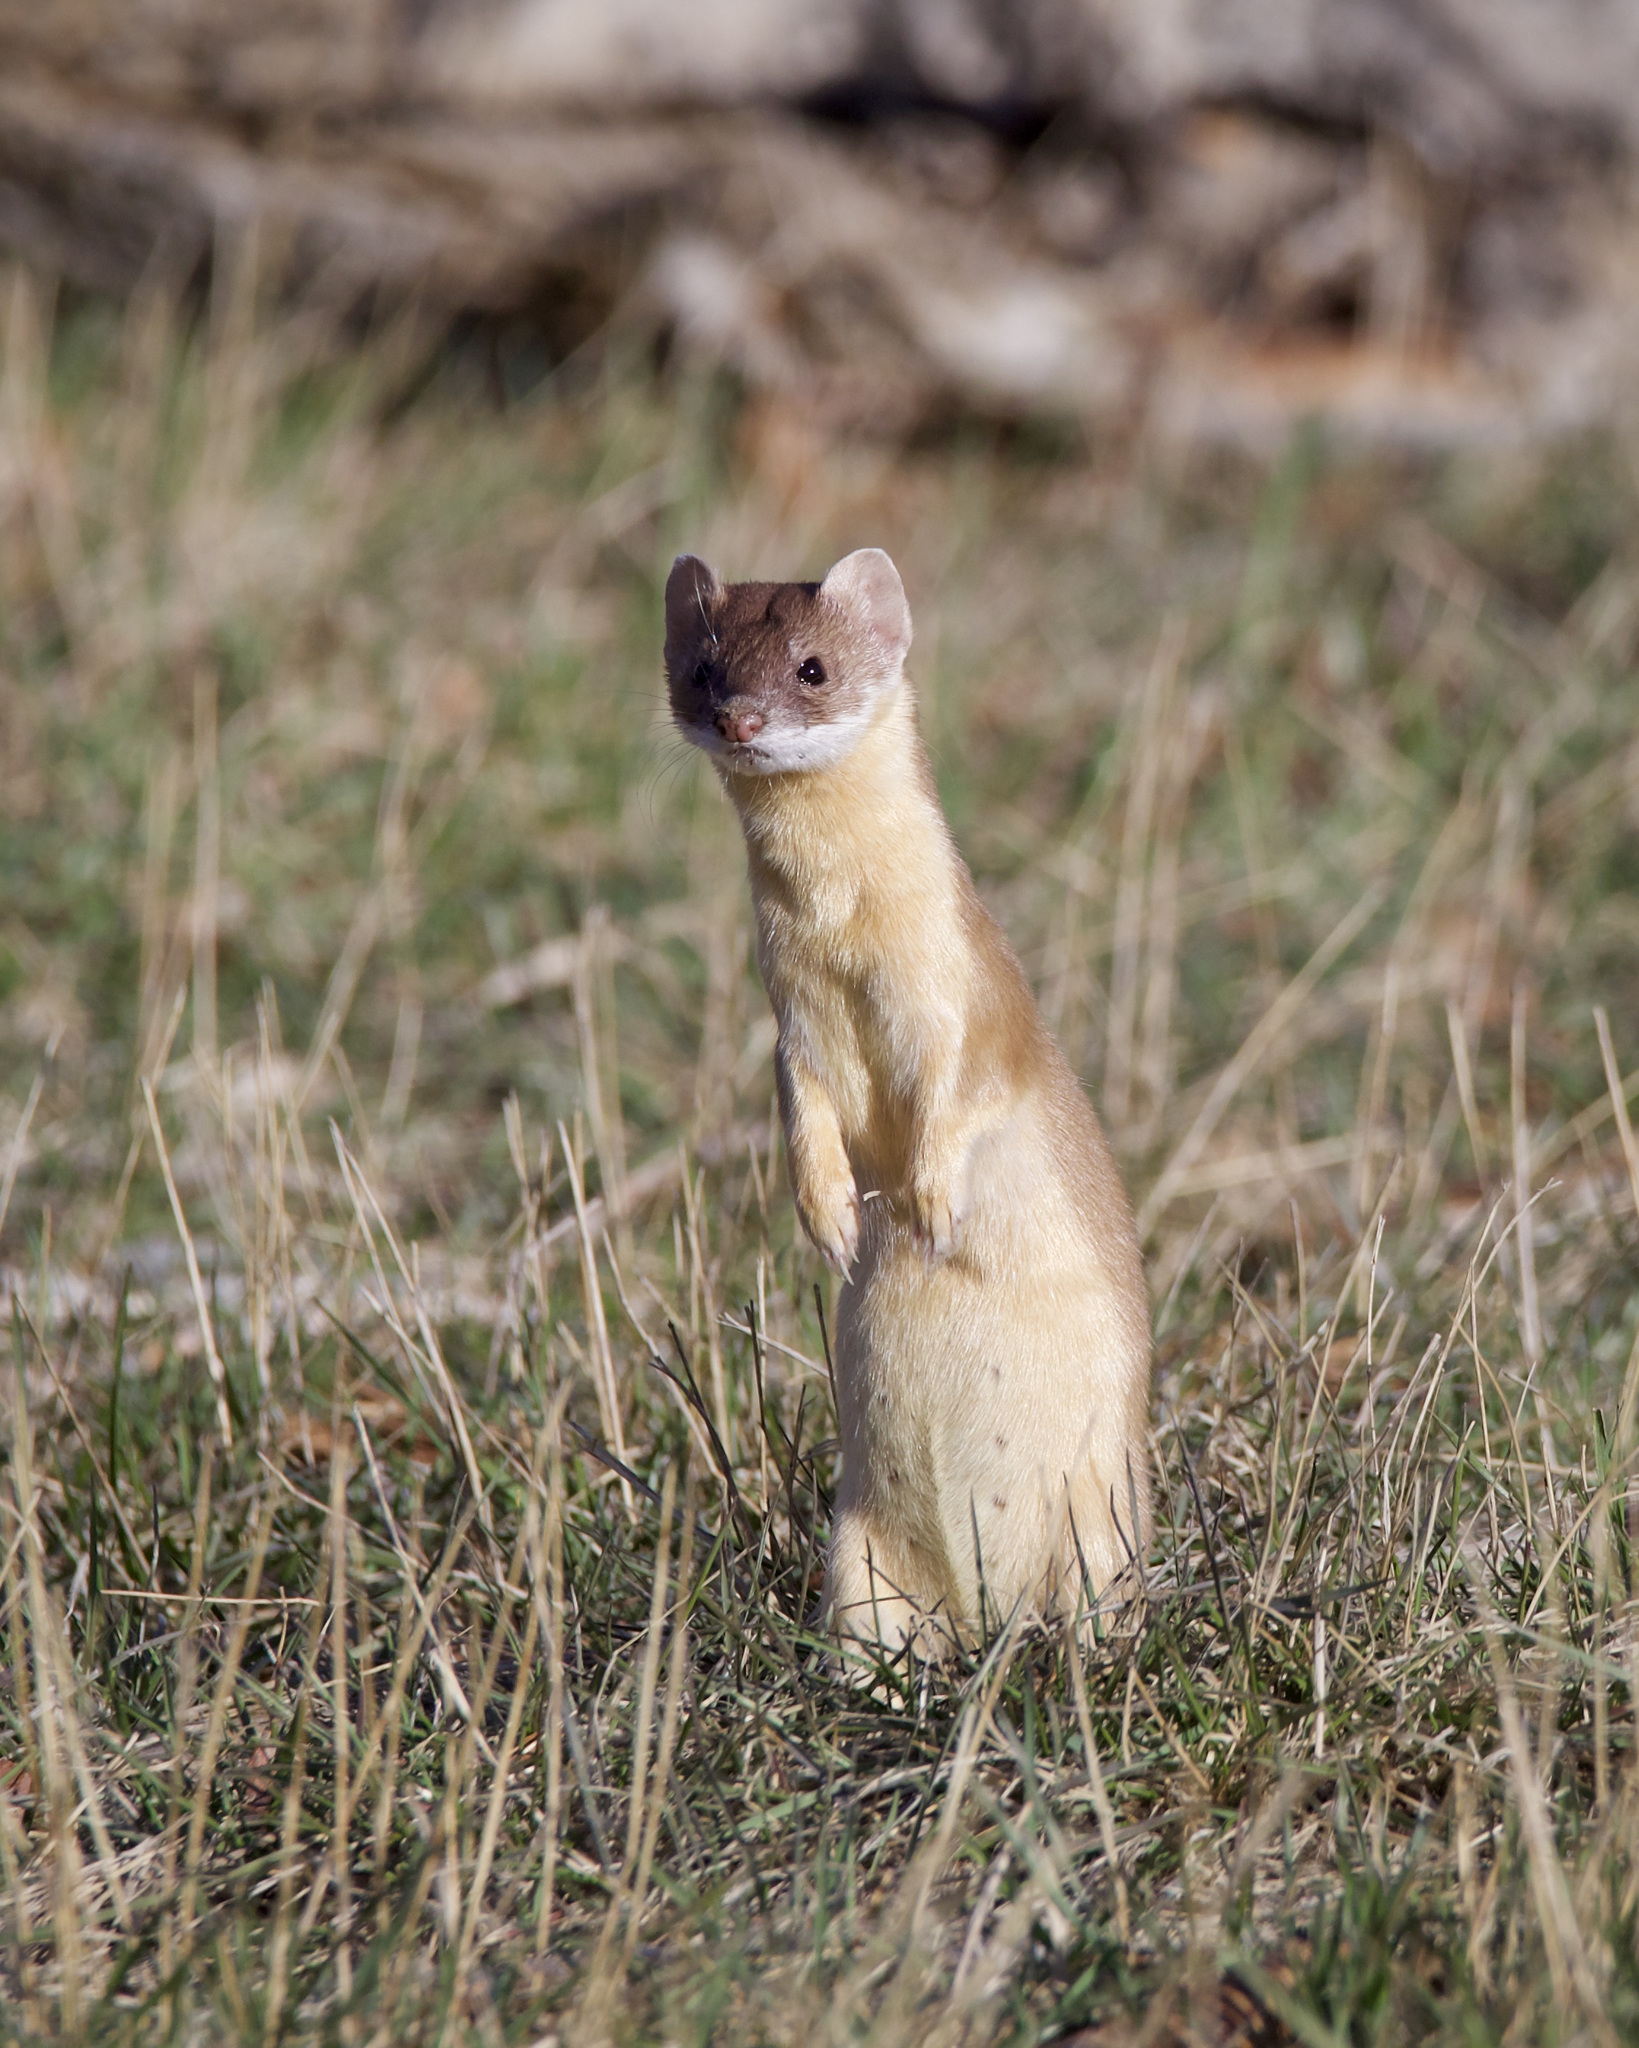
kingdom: Animalia
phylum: Chordata
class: Mammalia
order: Carnivora
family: Mustelidae
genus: Mustela
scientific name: Mustela
